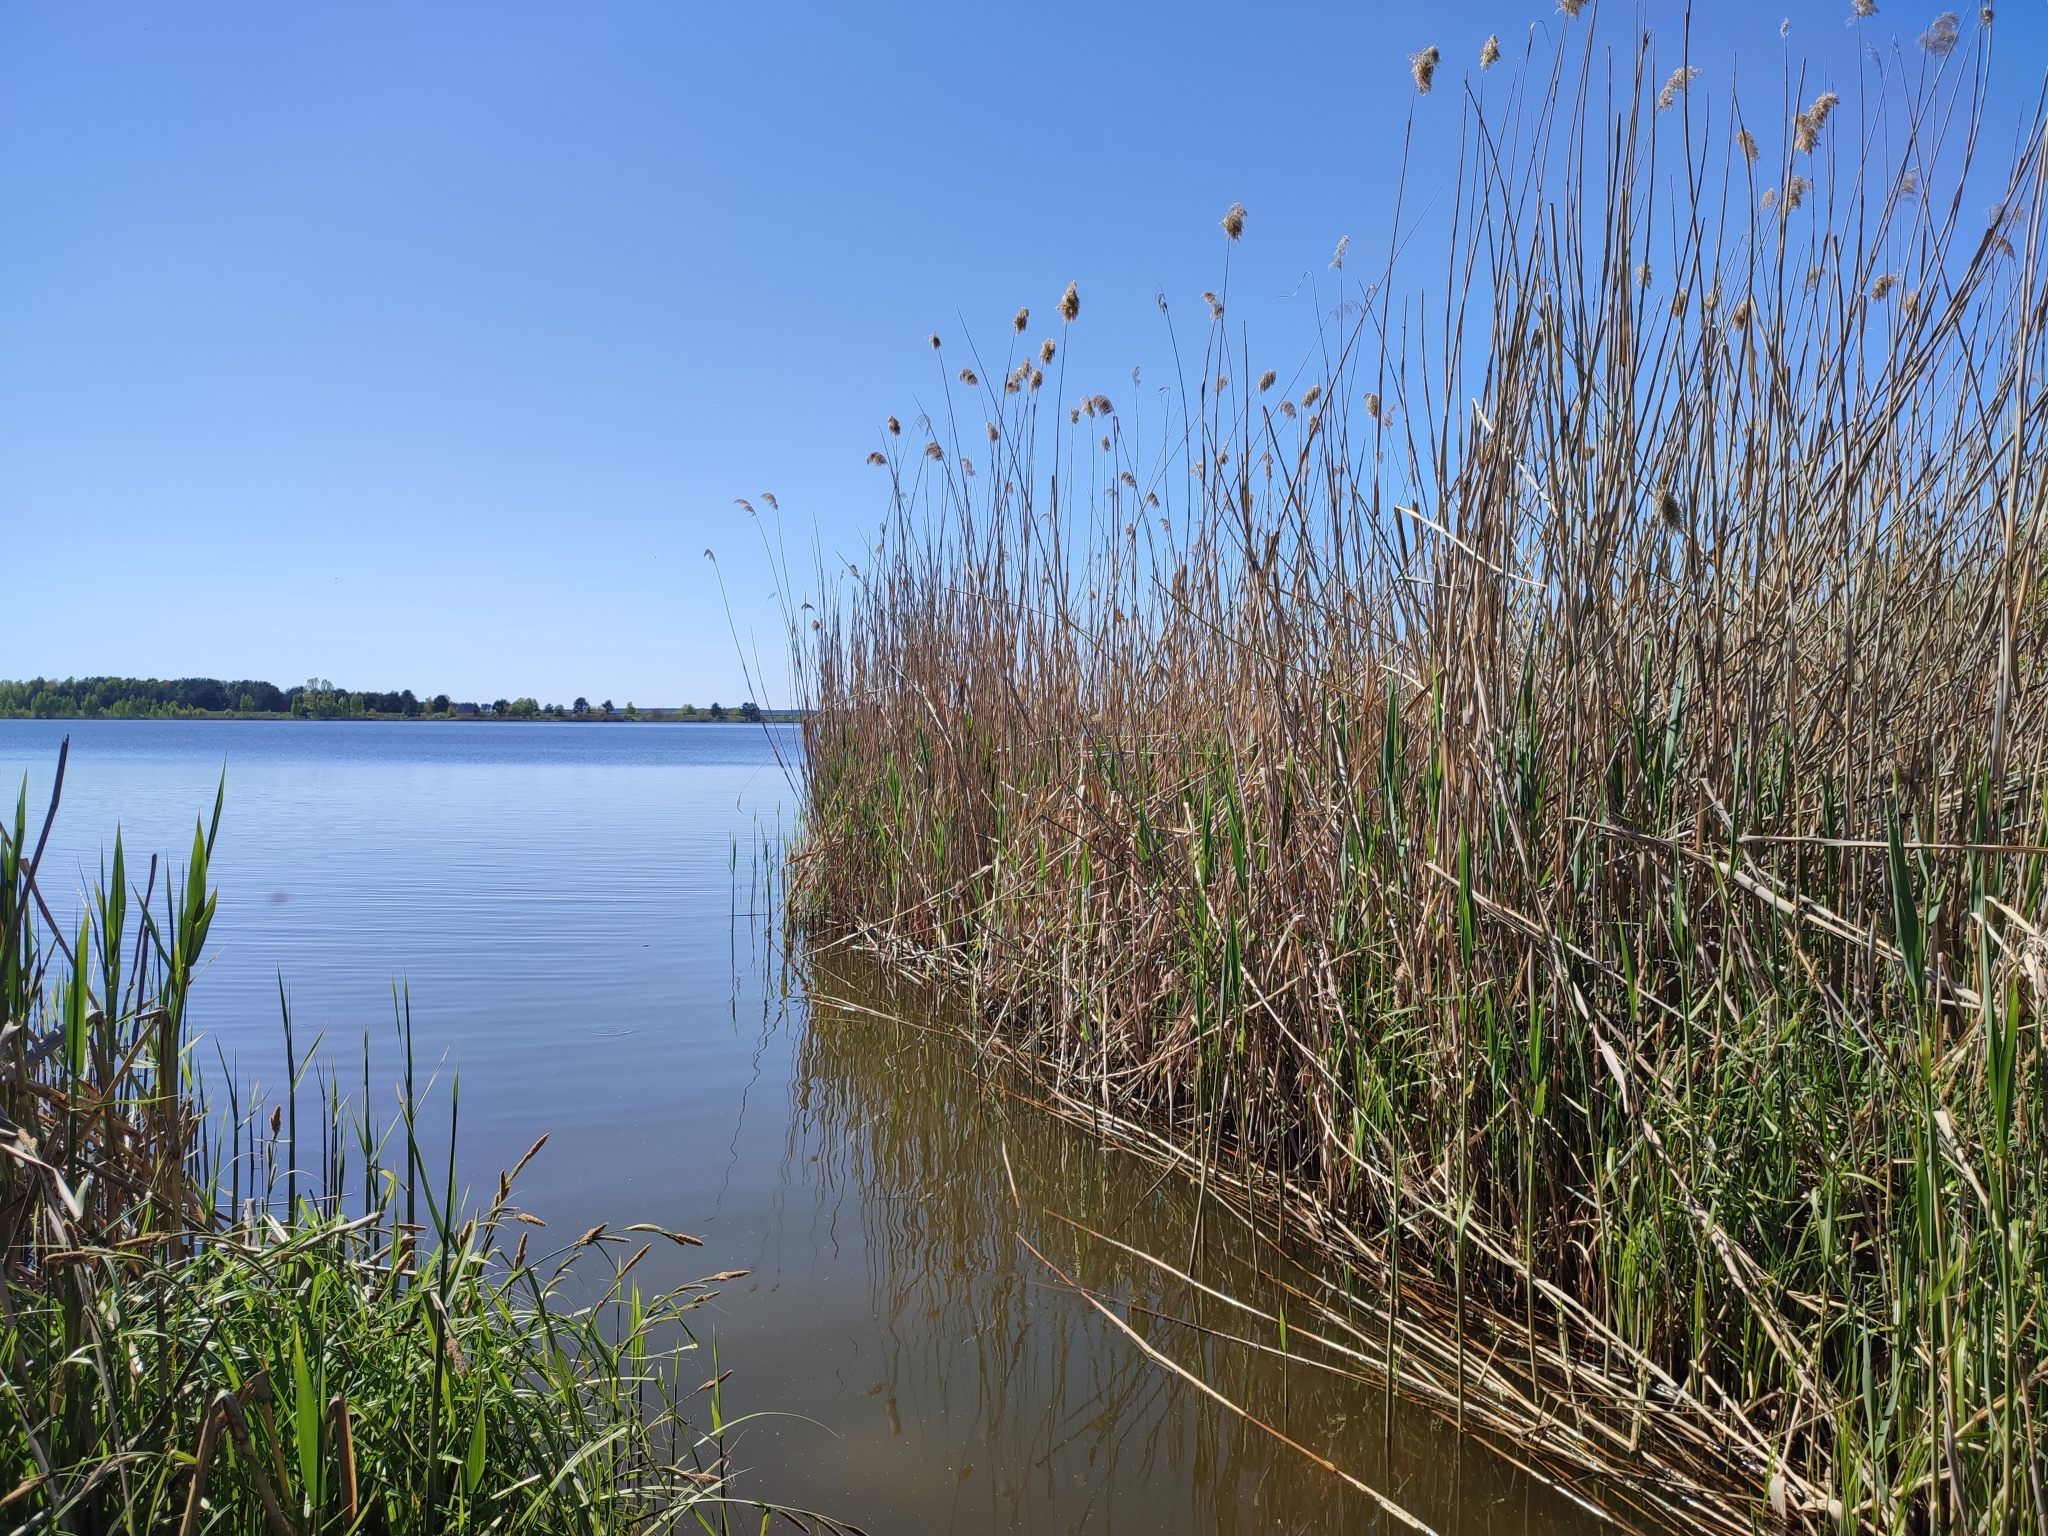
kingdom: Plantae
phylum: Tracheophyta
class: Liliopsida
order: Poales
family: Poaceae
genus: Phragmites
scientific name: Phragmites australis
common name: Common reed
